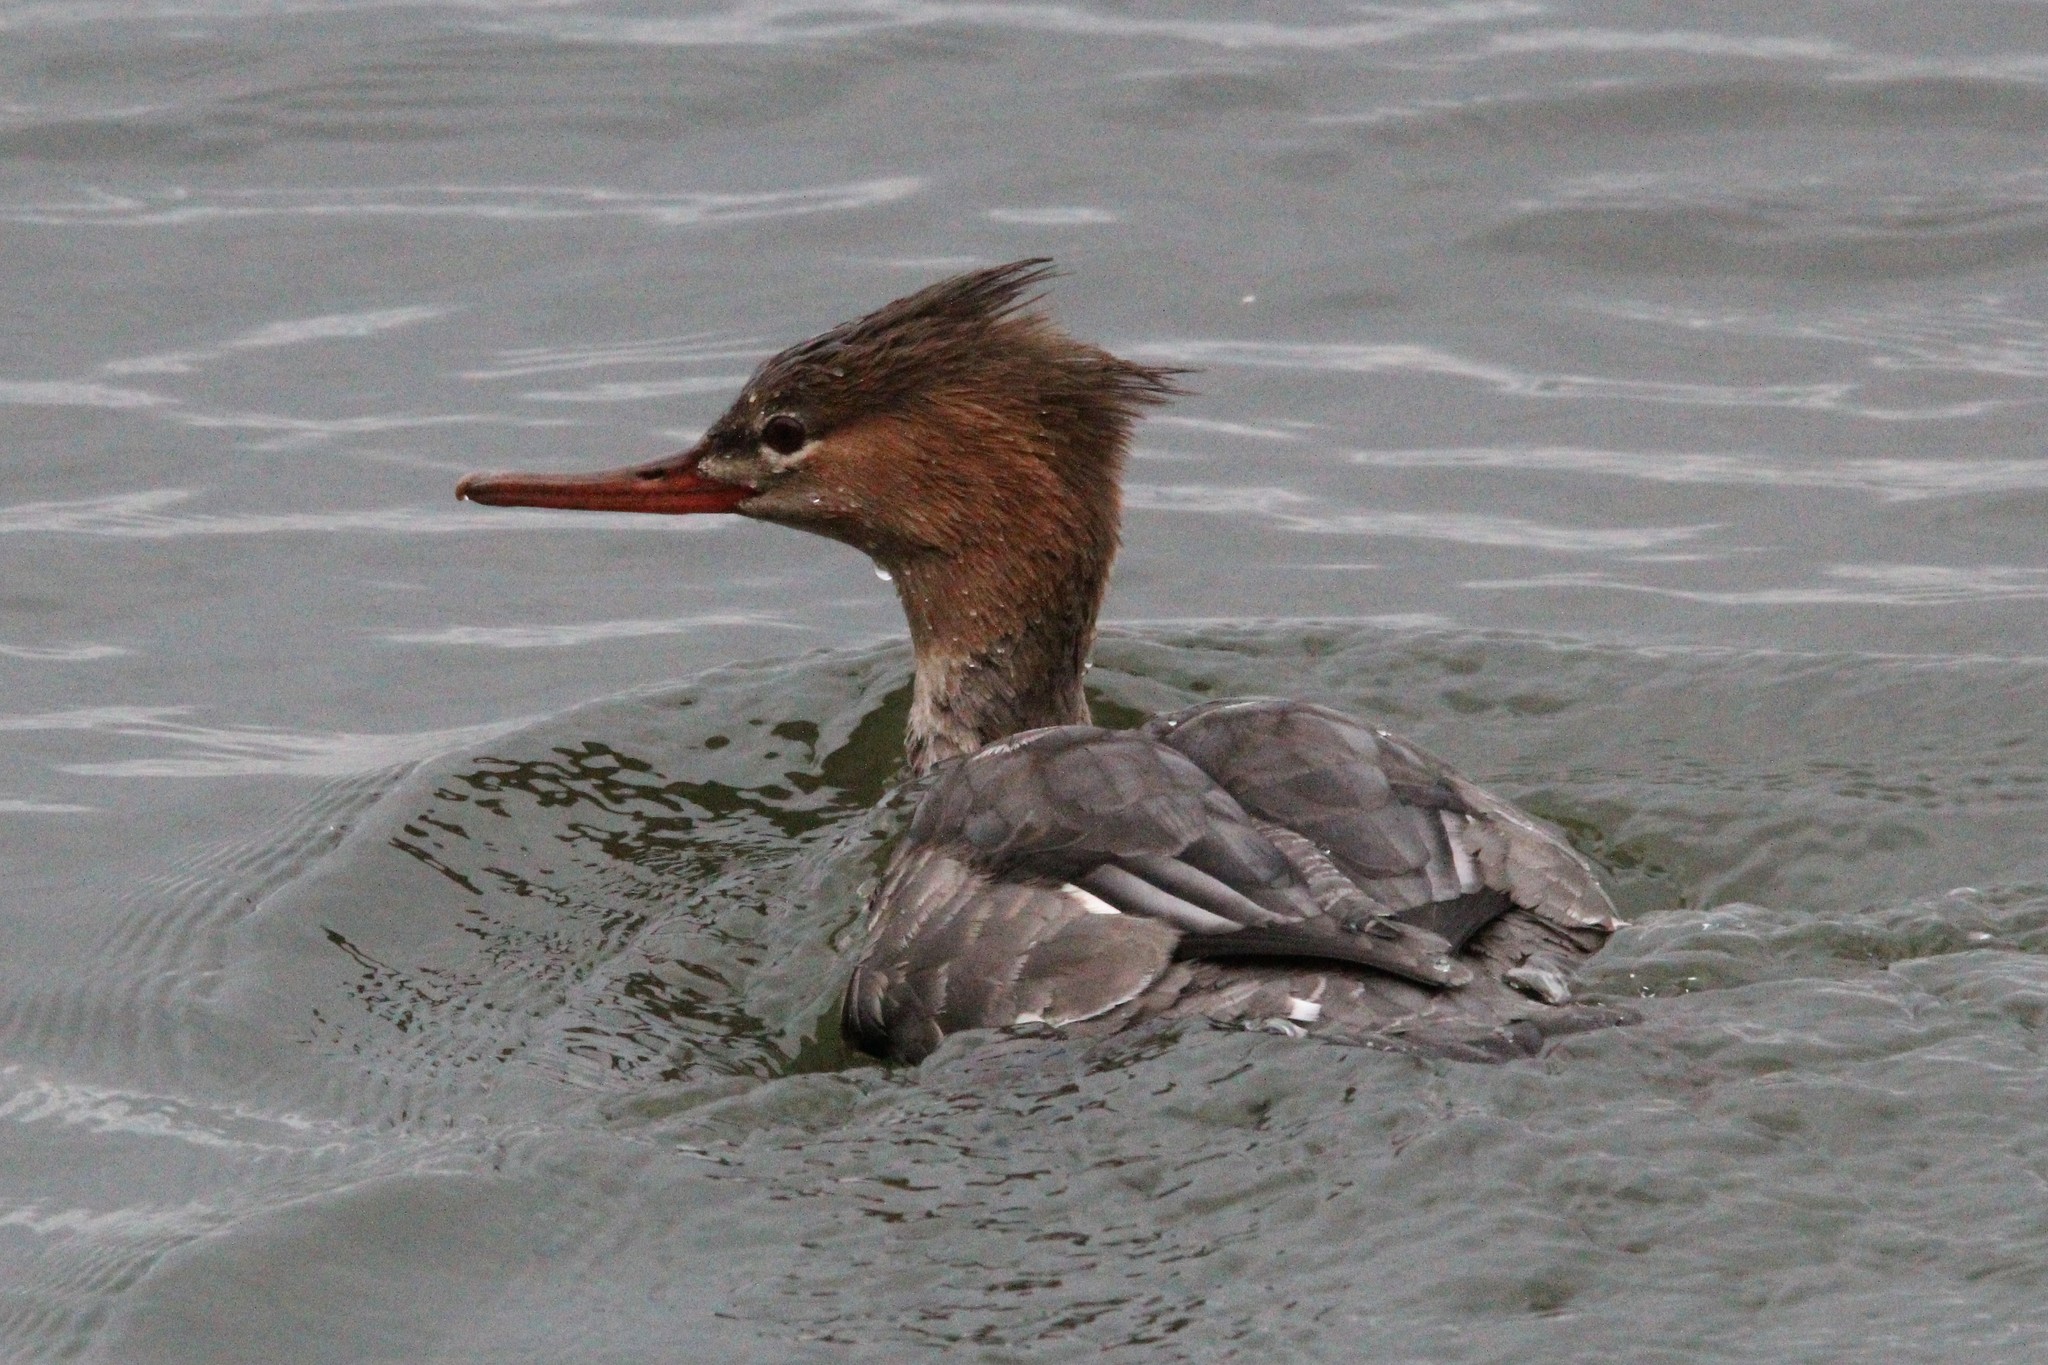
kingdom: Animalia
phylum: Chordata
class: Aves
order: Anseriformes
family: Anatidae
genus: Mergus
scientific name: Mergus serrator
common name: Red-breasted merganser
